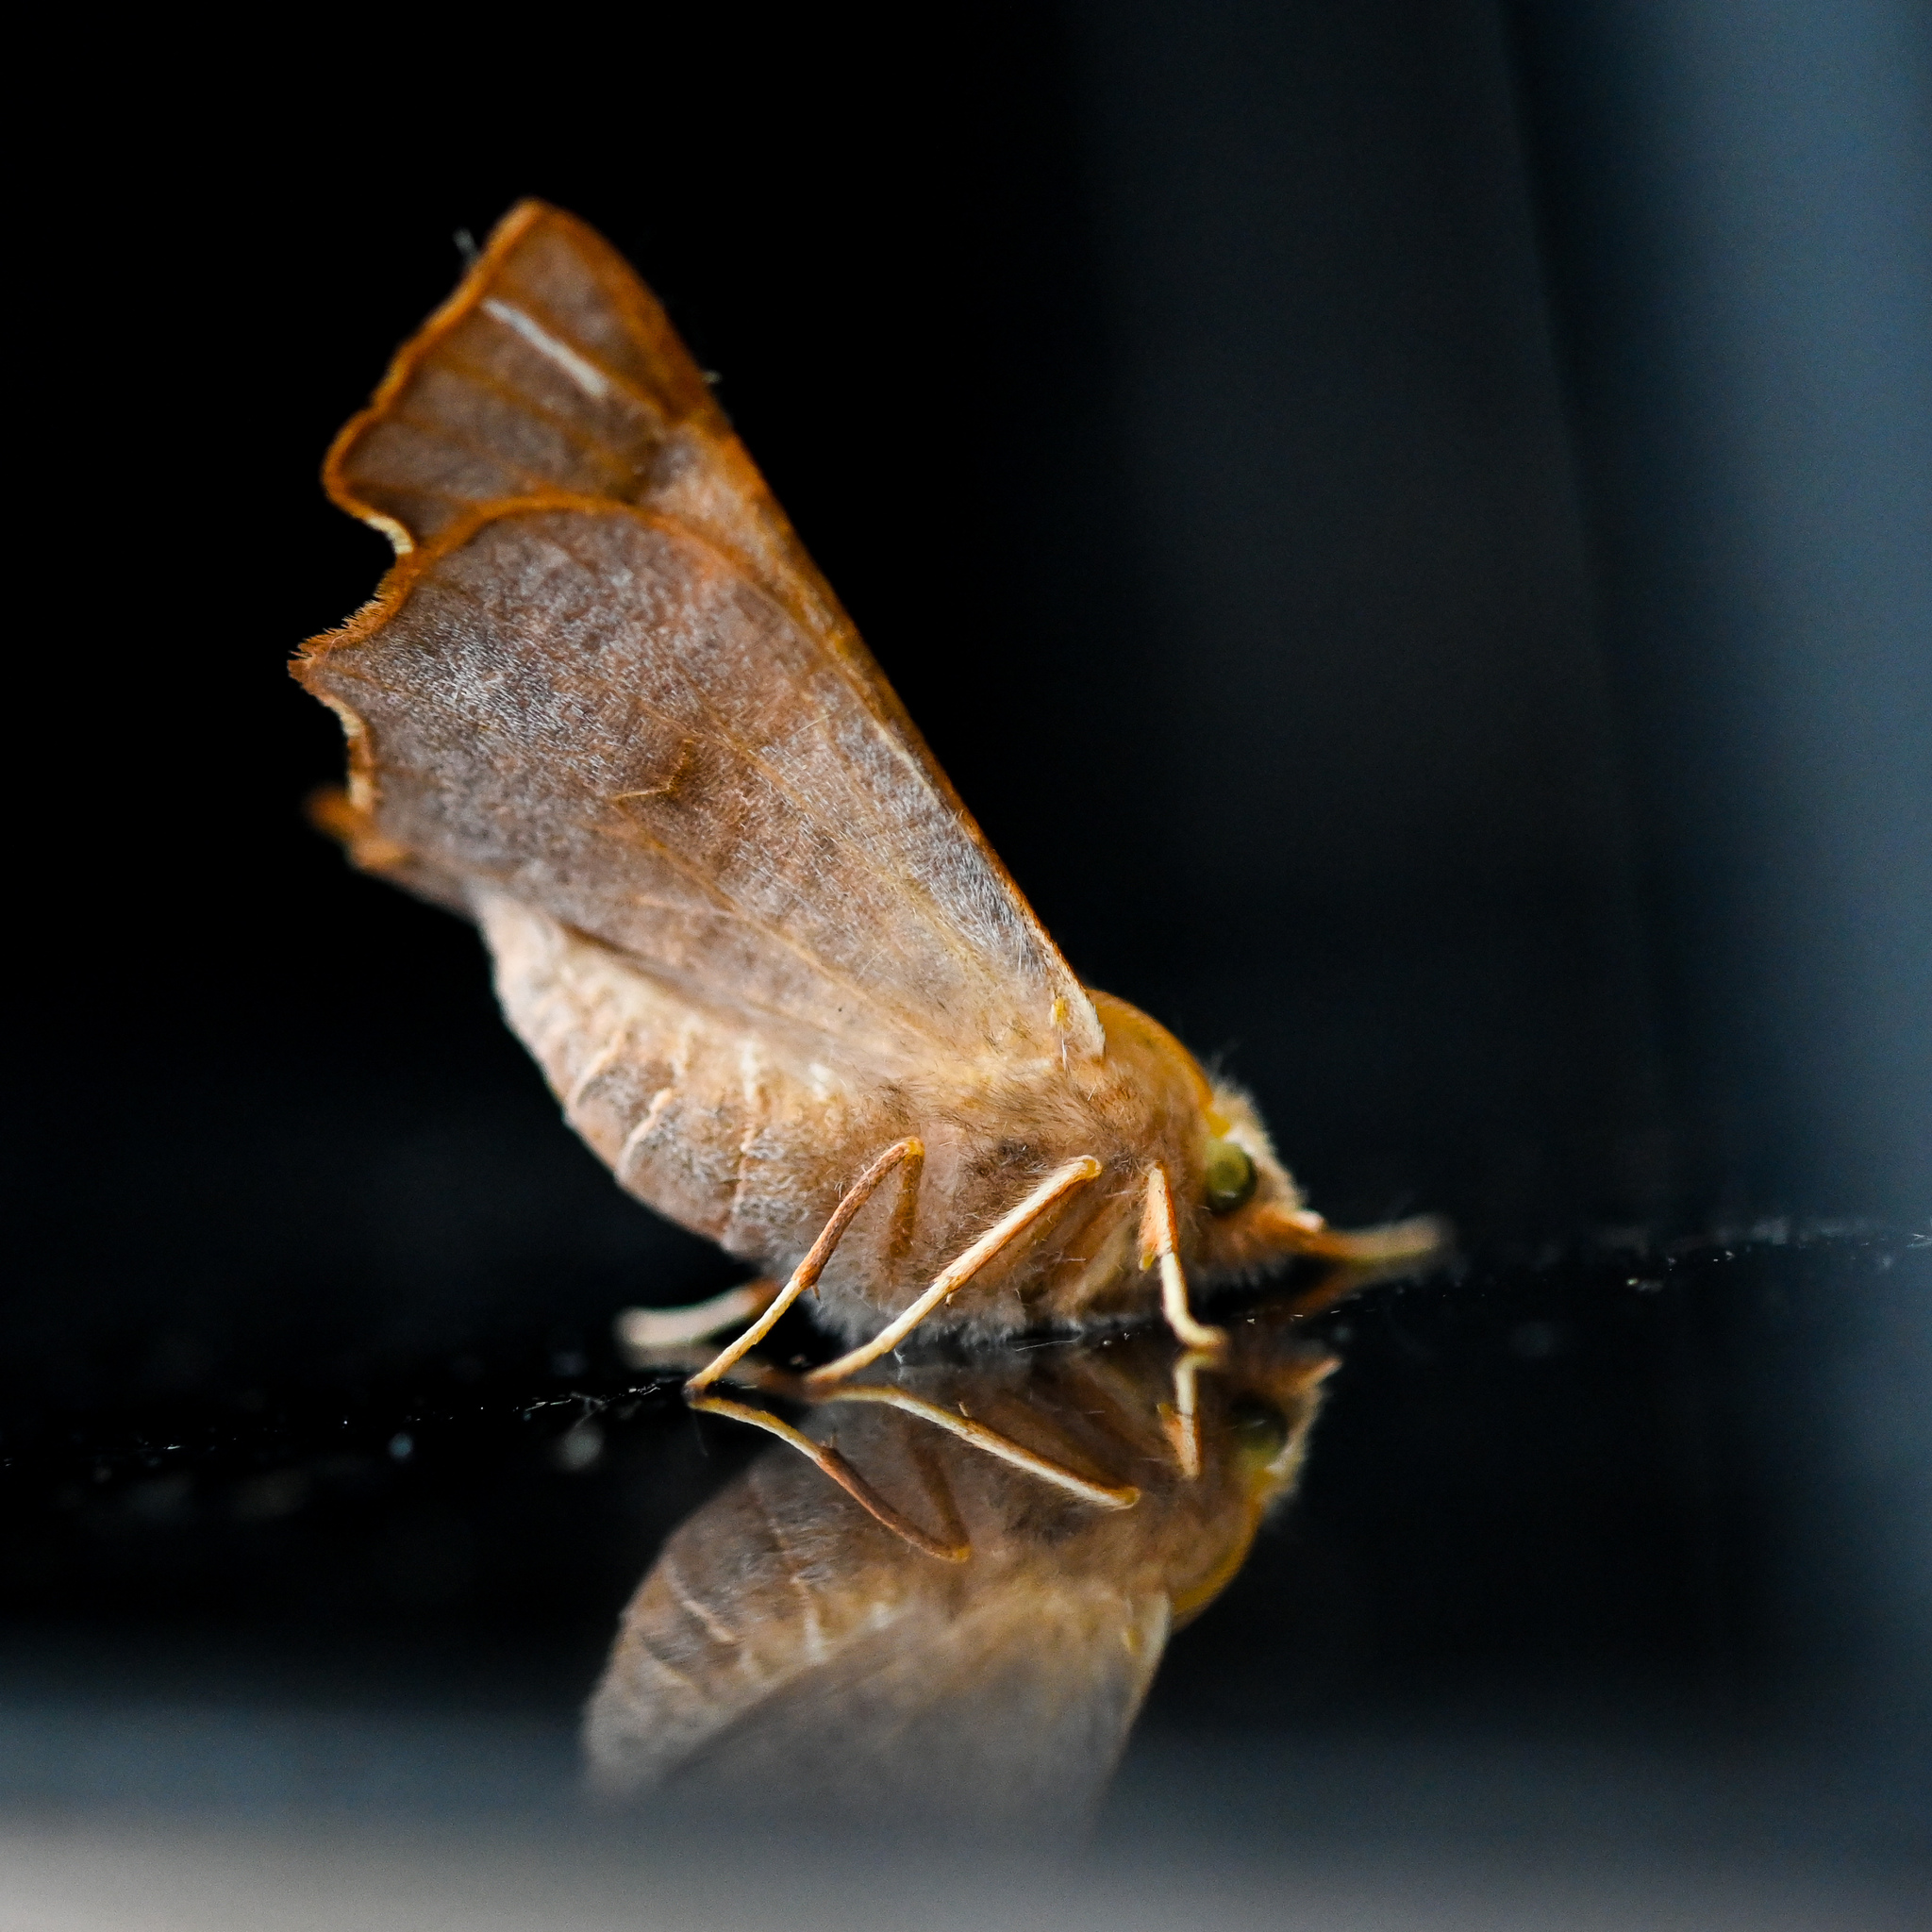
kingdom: Animalia
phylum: Arthropoda
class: Insecta
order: Lepidoptera
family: Geometridae
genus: Ennomos
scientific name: Ennomos fuscantaria
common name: Dusky thorn
